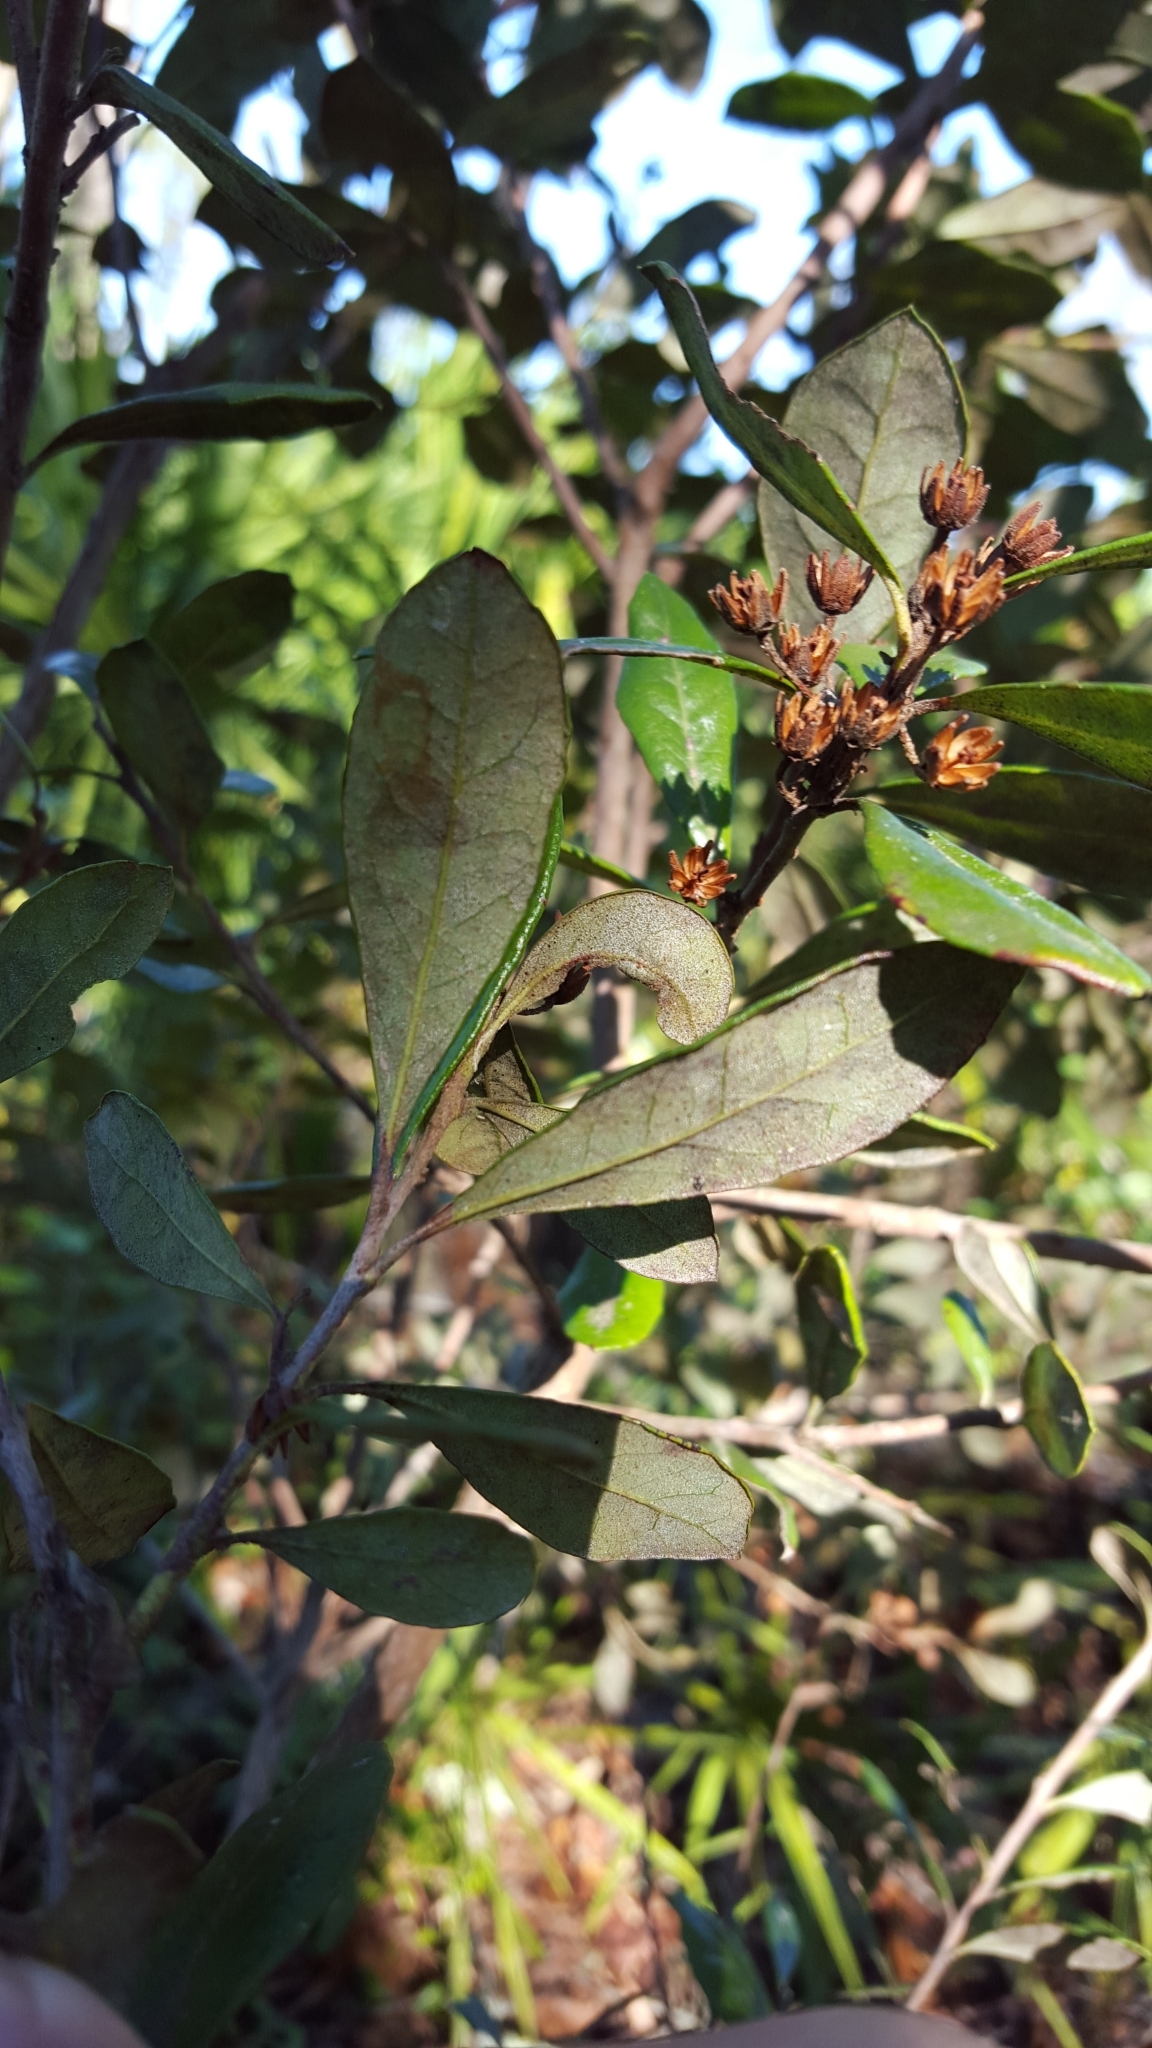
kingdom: Plantae
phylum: Tracheophyta
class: Magnoliopsida
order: Ericales
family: Ericaceae
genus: Lyonia
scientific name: Lyonia ferruginea
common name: Rusty lyonia
